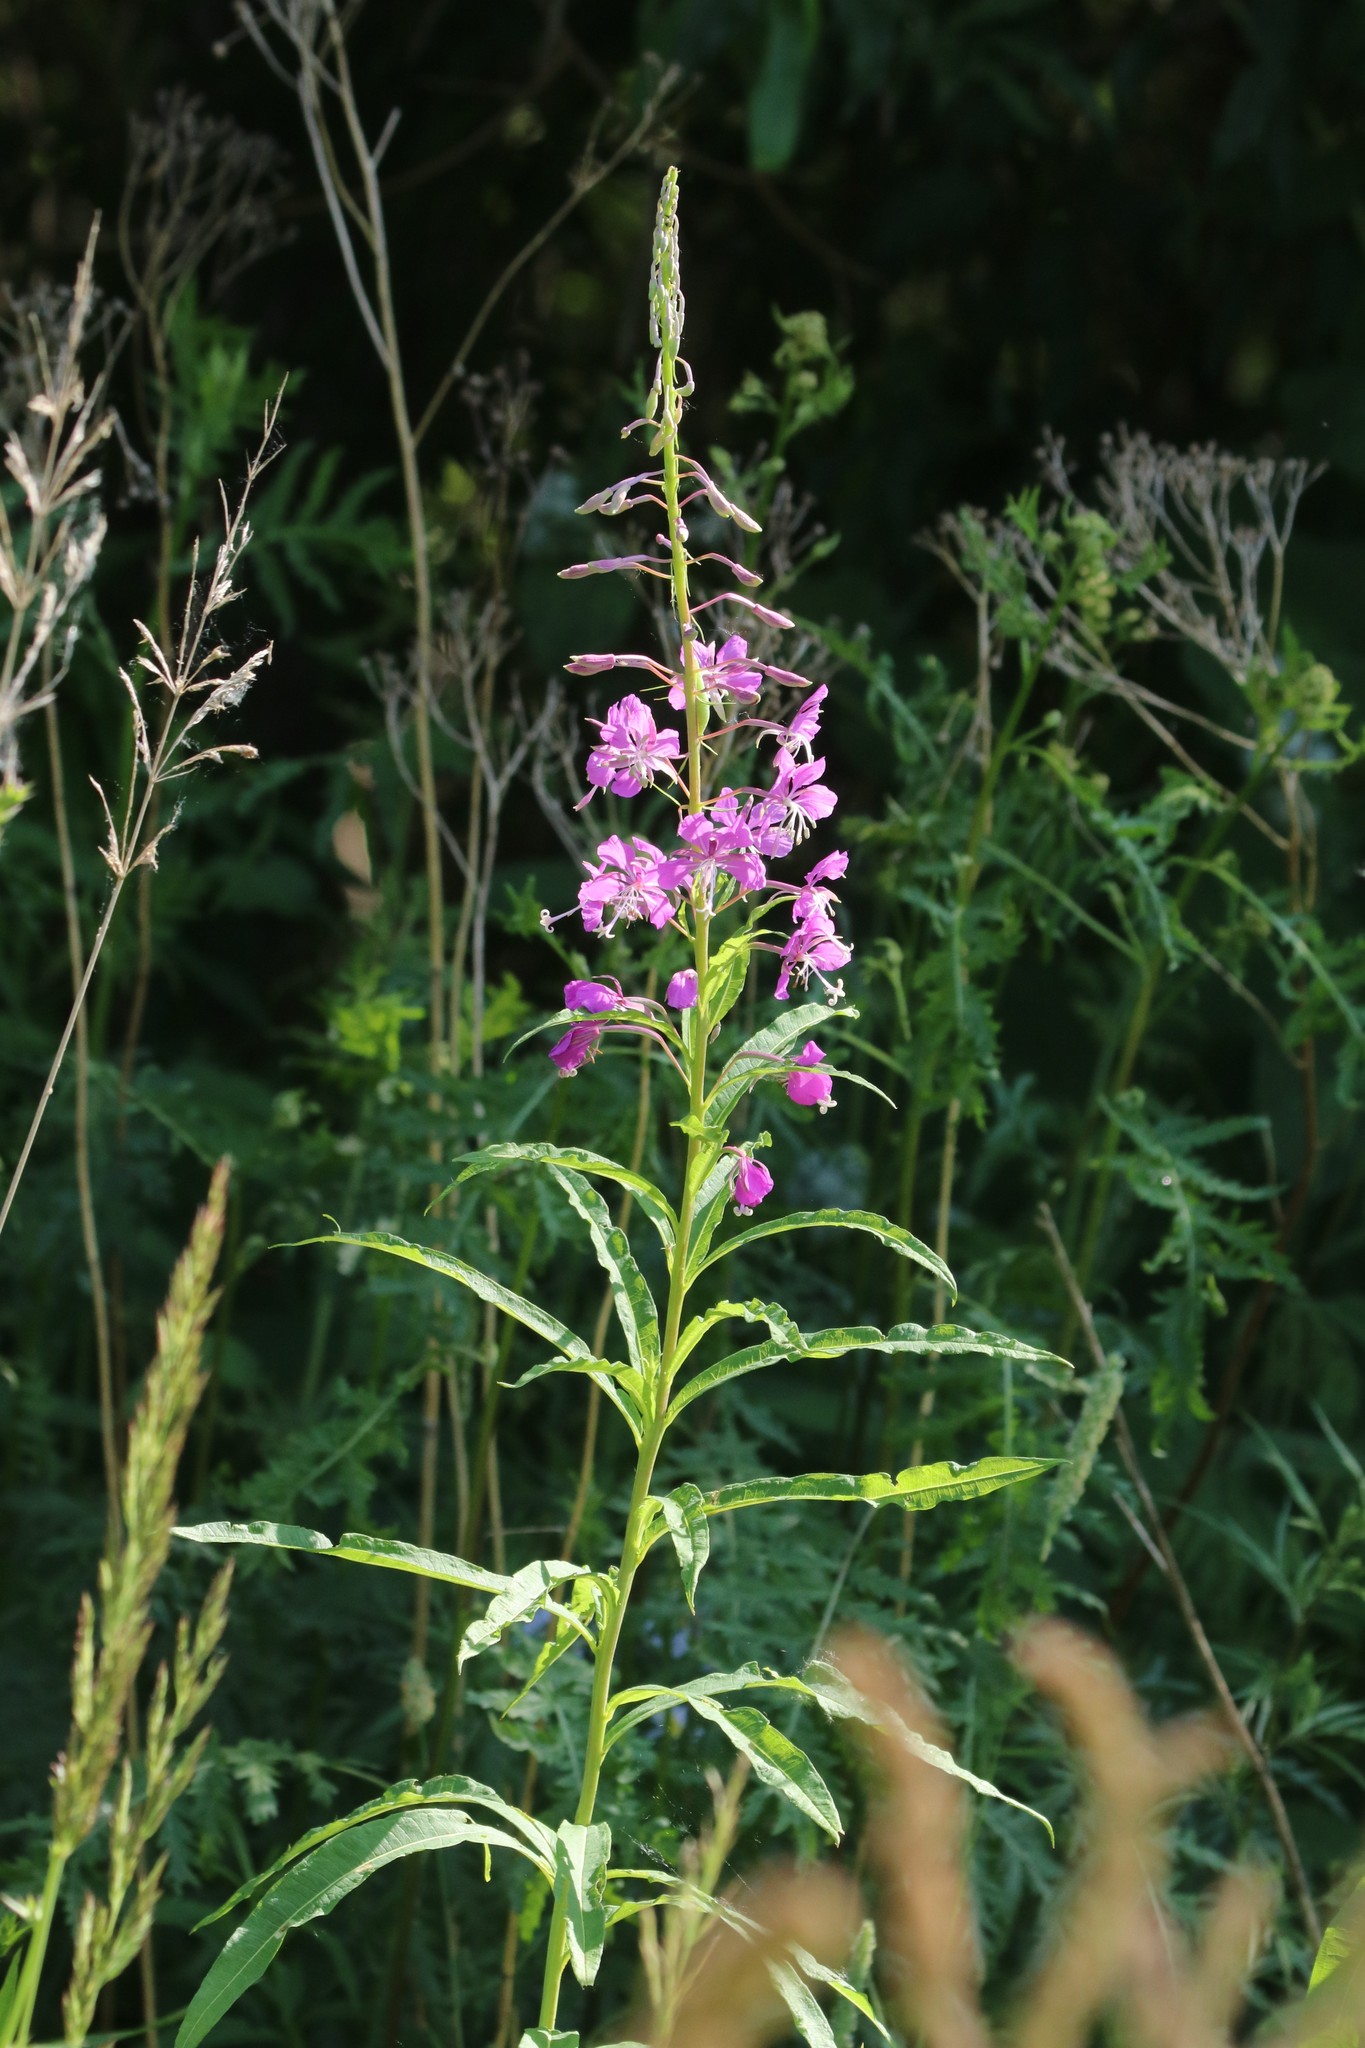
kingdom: Plantae
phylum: Tracheophyta
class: Magnoliopsida
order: Myrtales
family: Onagraceae
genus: Chamaenerion
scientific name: Chamaenerion angustifolium
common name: Fireweed
